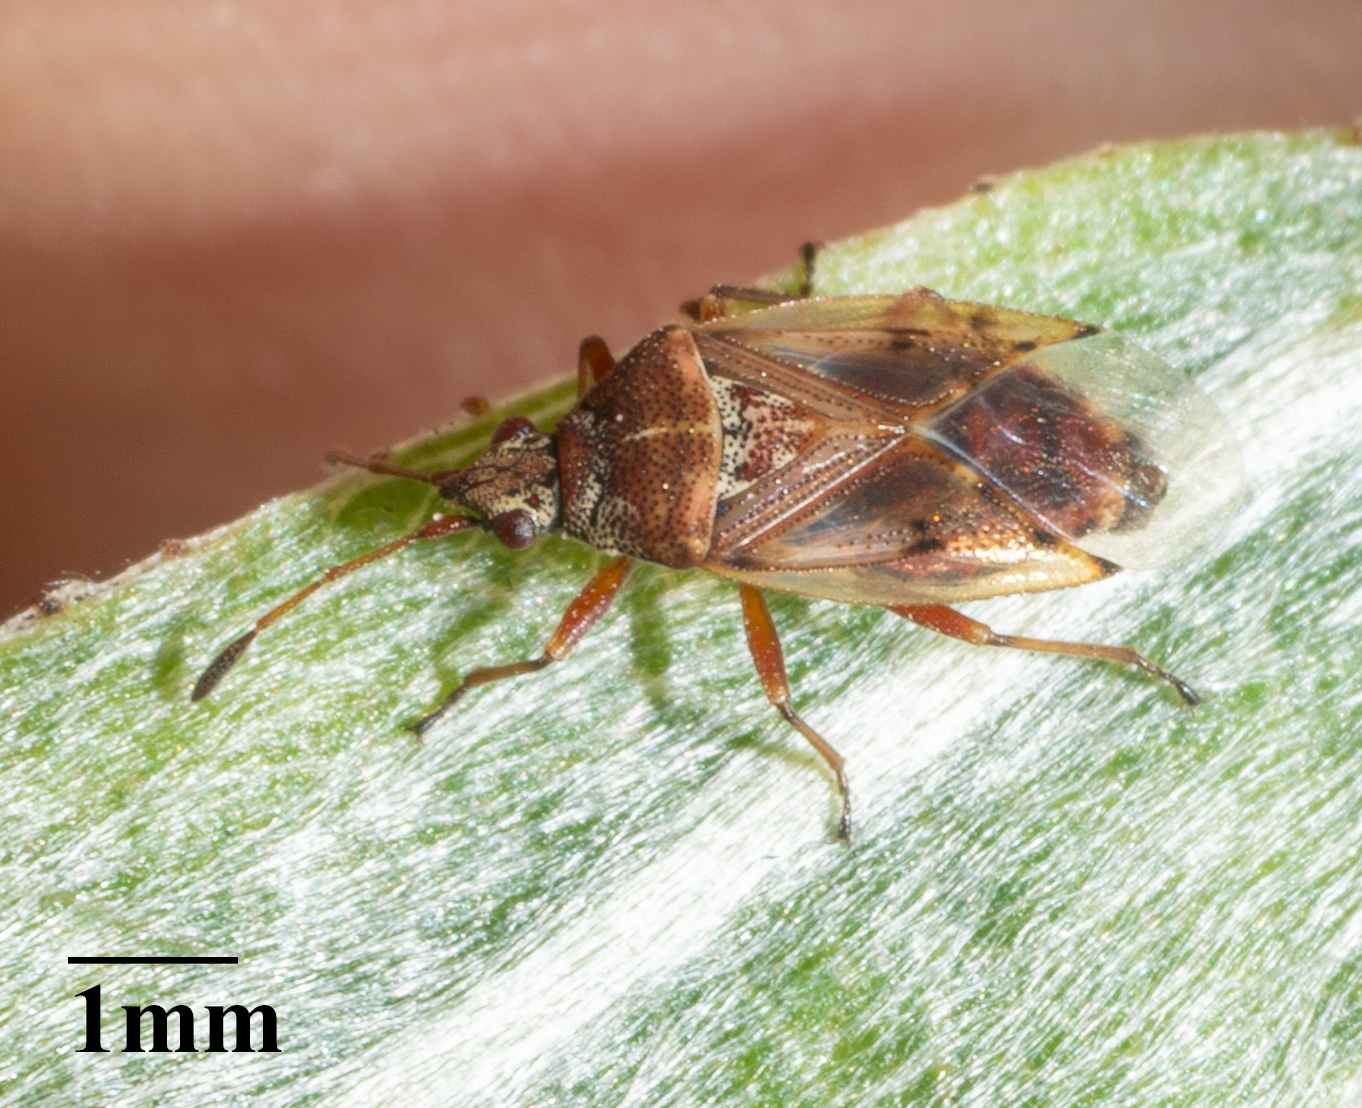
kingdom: Animalia
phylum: Arthropoda
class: Insecta
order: Hemiptera
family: Lygaeidae
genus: Kleidocerys
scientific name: Kleidocerys resedae
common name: Birch catkin bug
